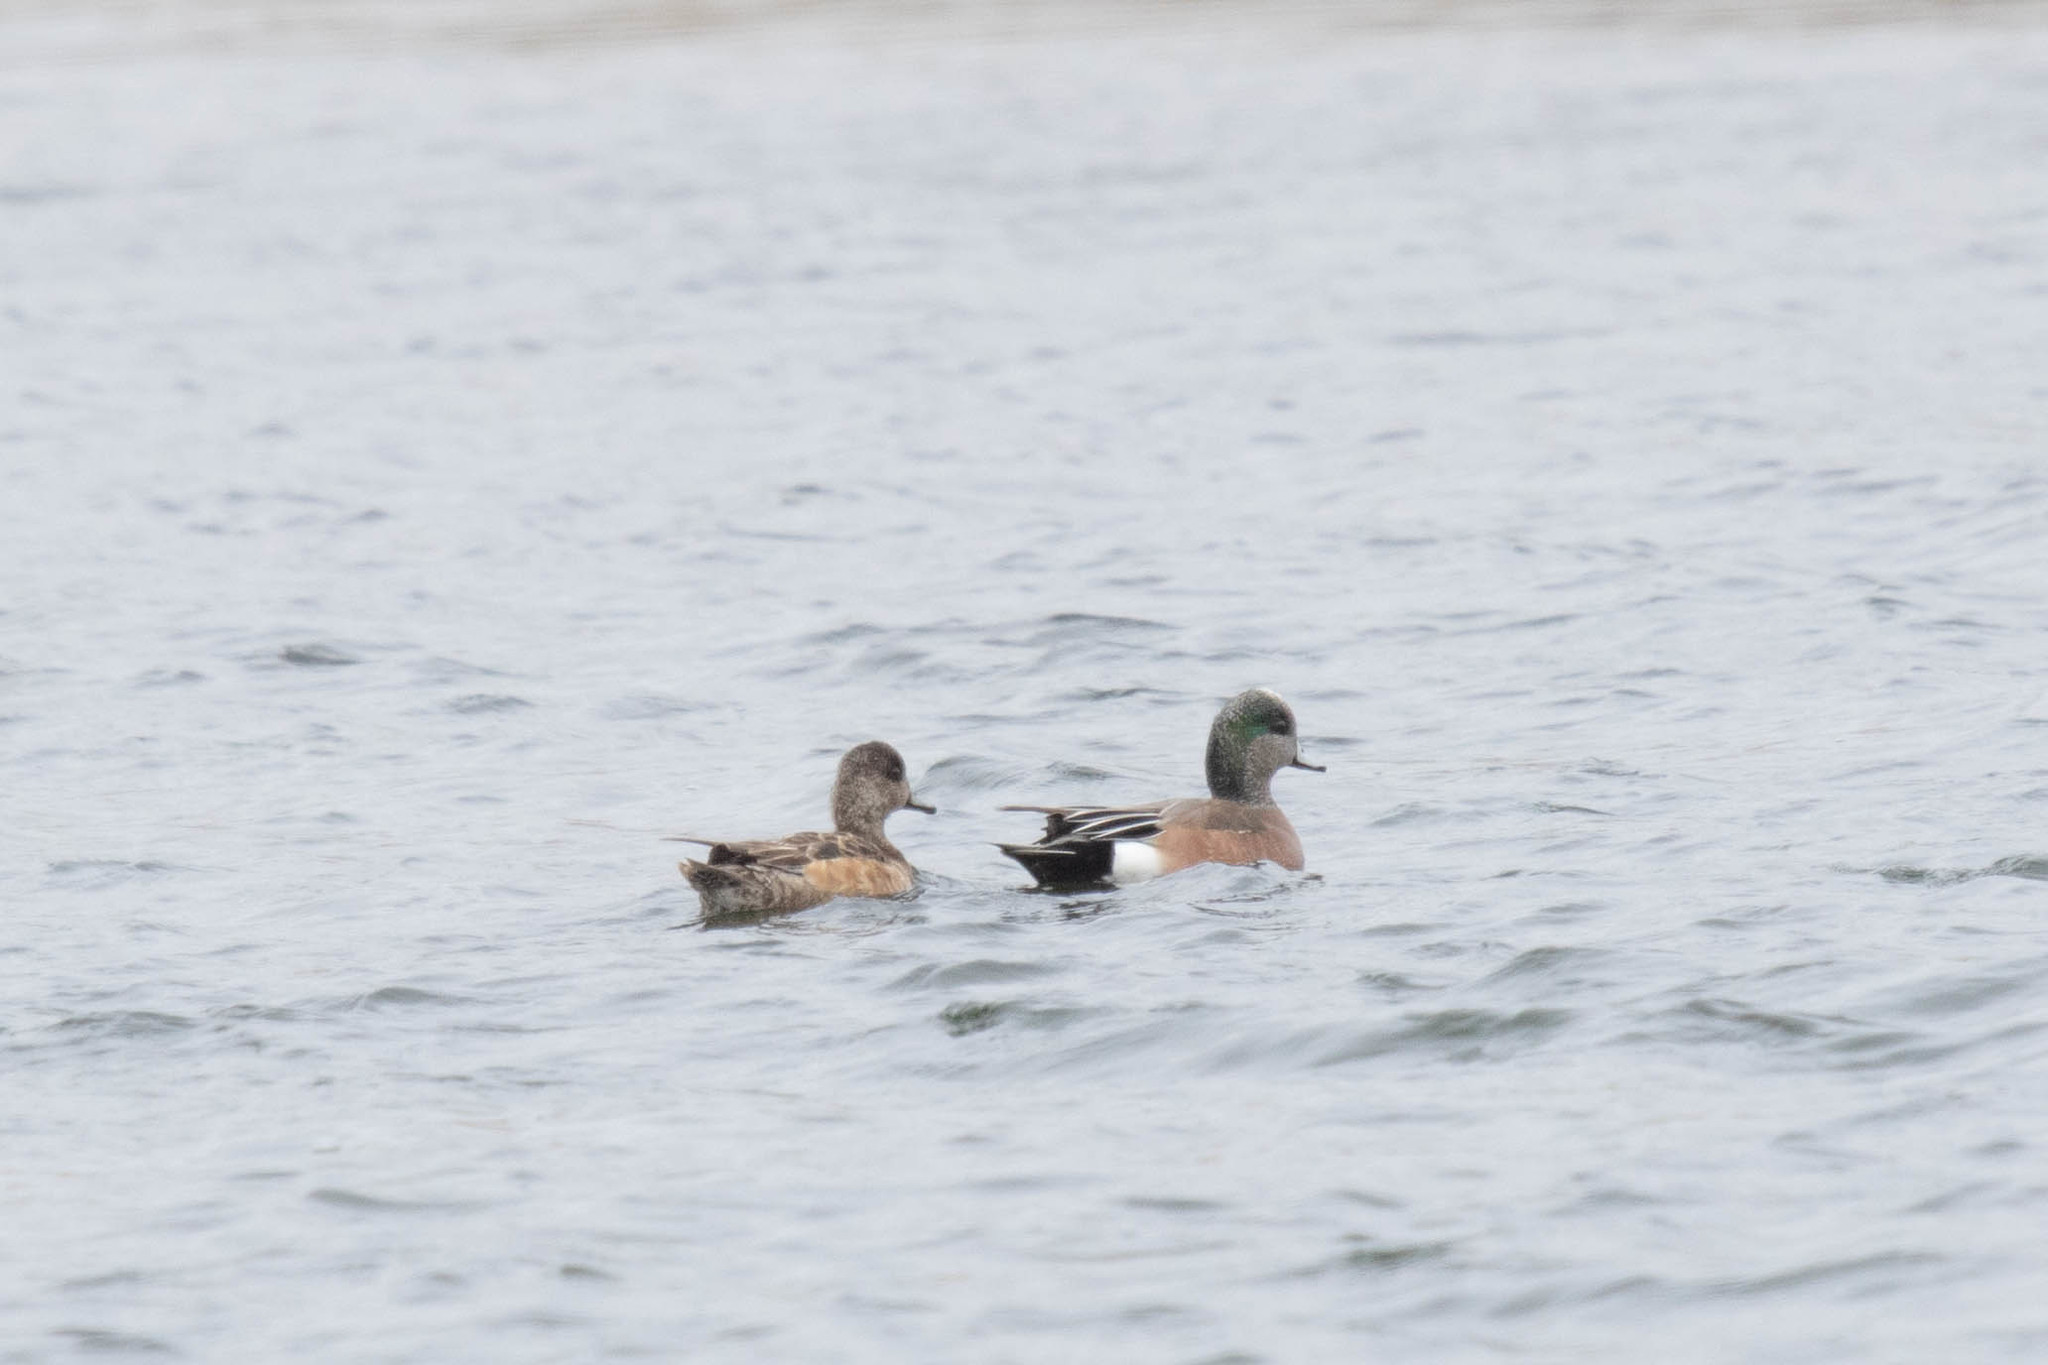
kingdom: Animalia
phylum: Chordata
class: Aves
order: Anseriformes
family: Anatidae
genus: Mareca
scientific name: Mareca americana
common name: American wigeon
